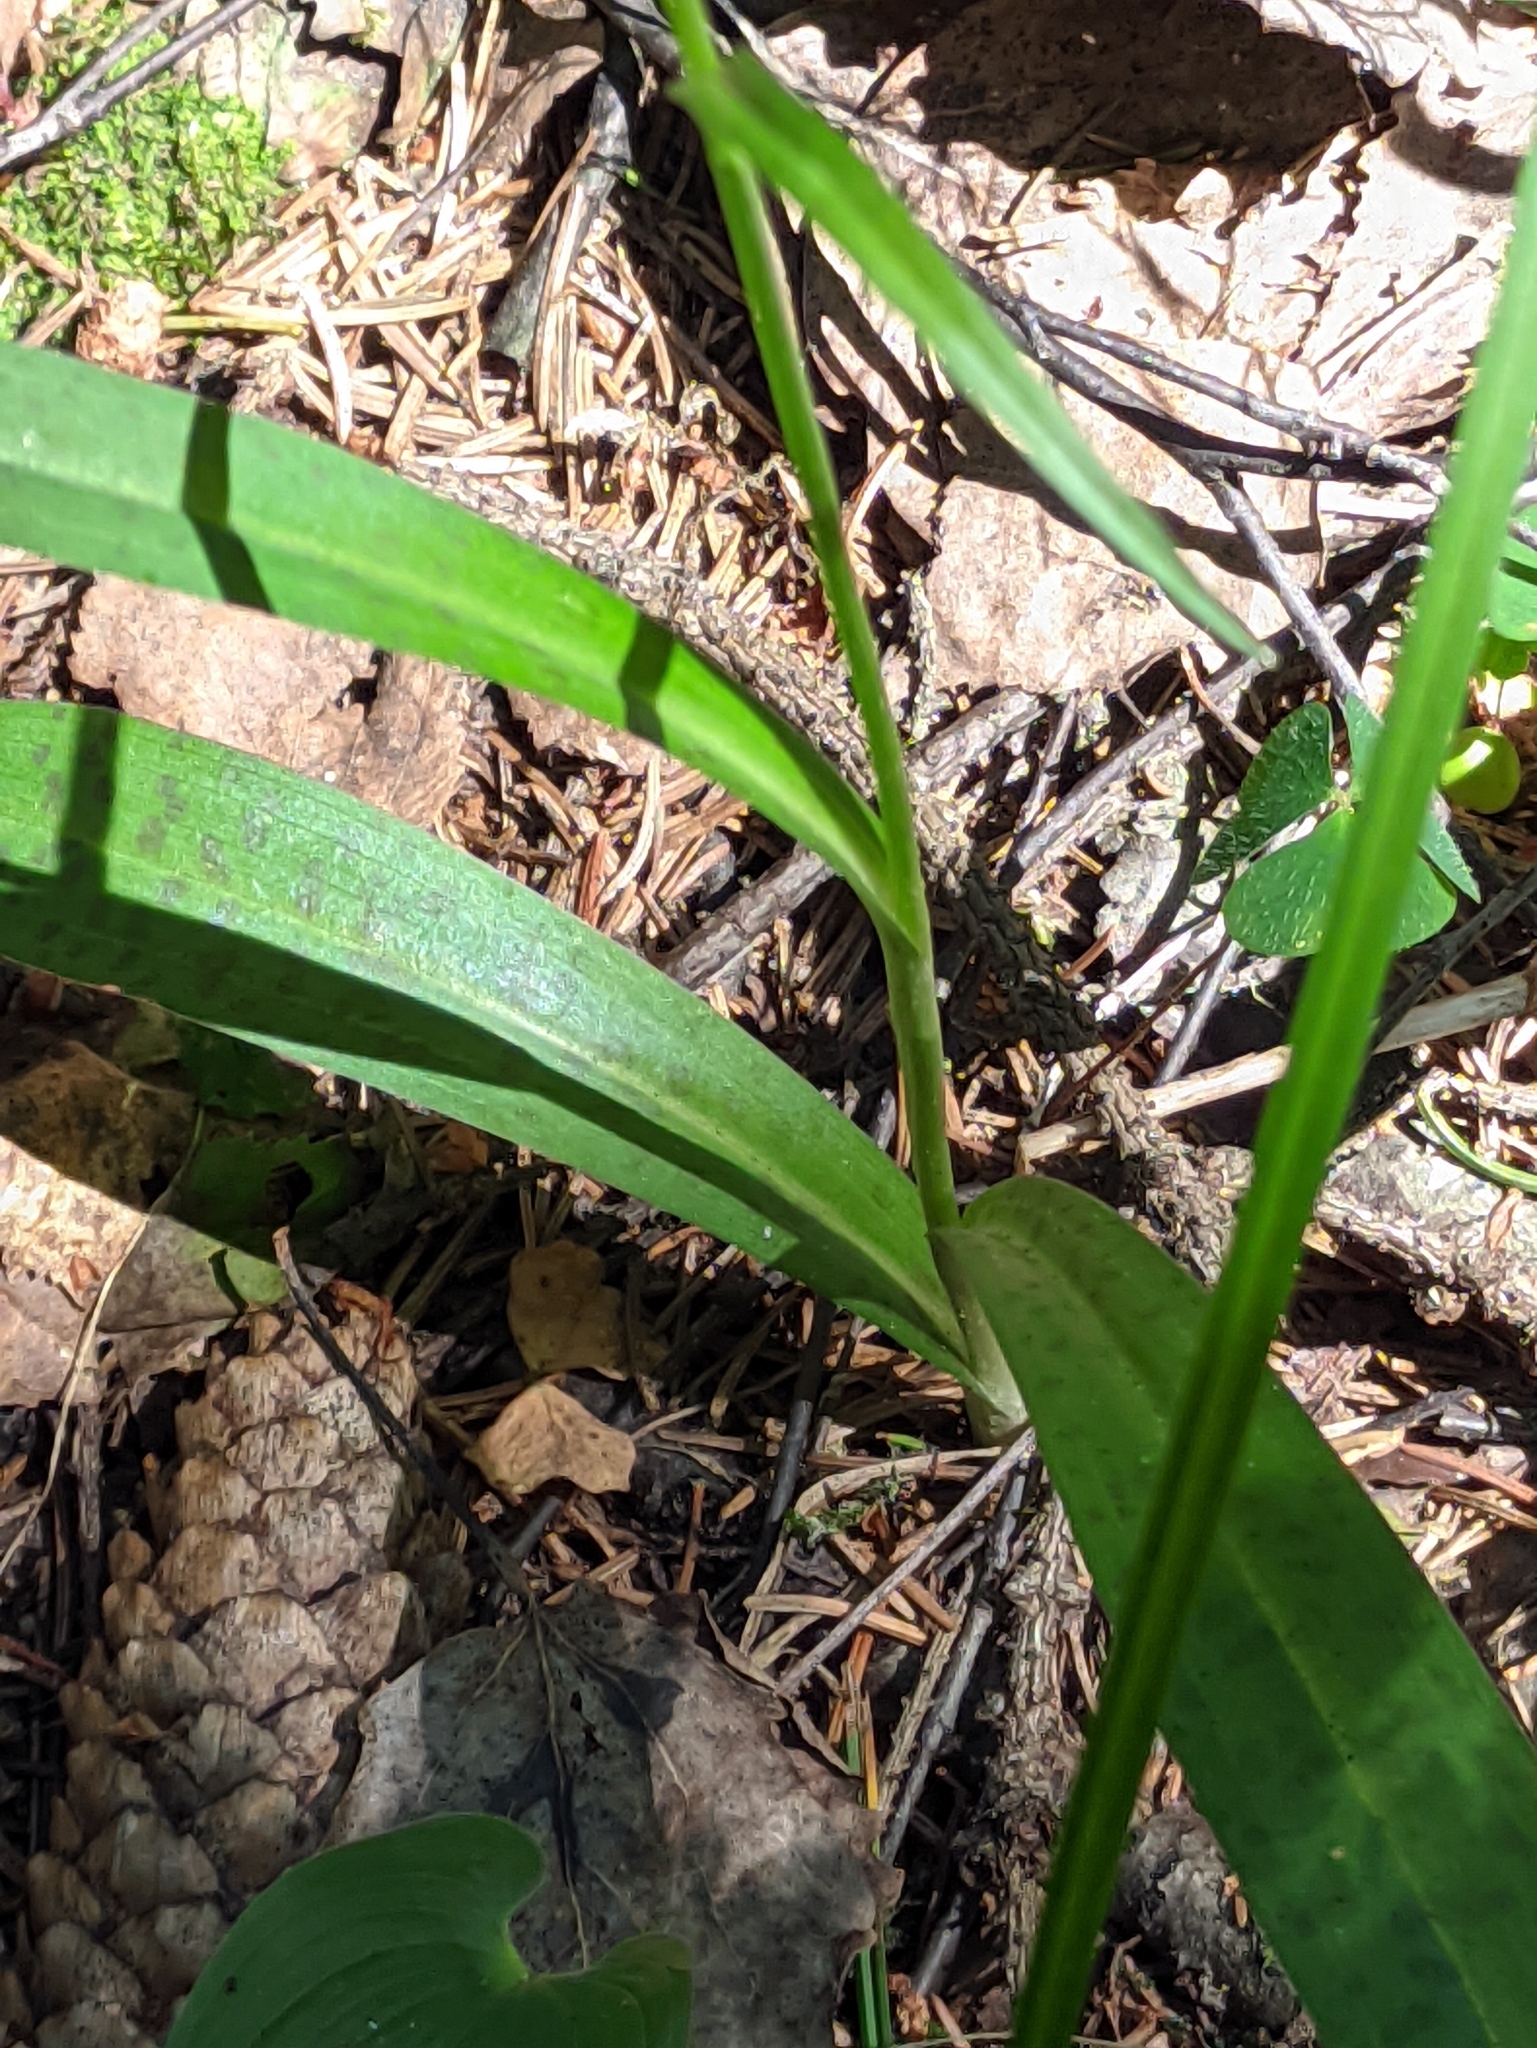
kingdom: Plantae
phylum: Tracheophyta
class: Liliopsida
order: Asparagales
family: Orchidaceae
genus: Dactylorhiza
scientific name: Dactylorhiza maculata
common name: Heath spotted-orchid
